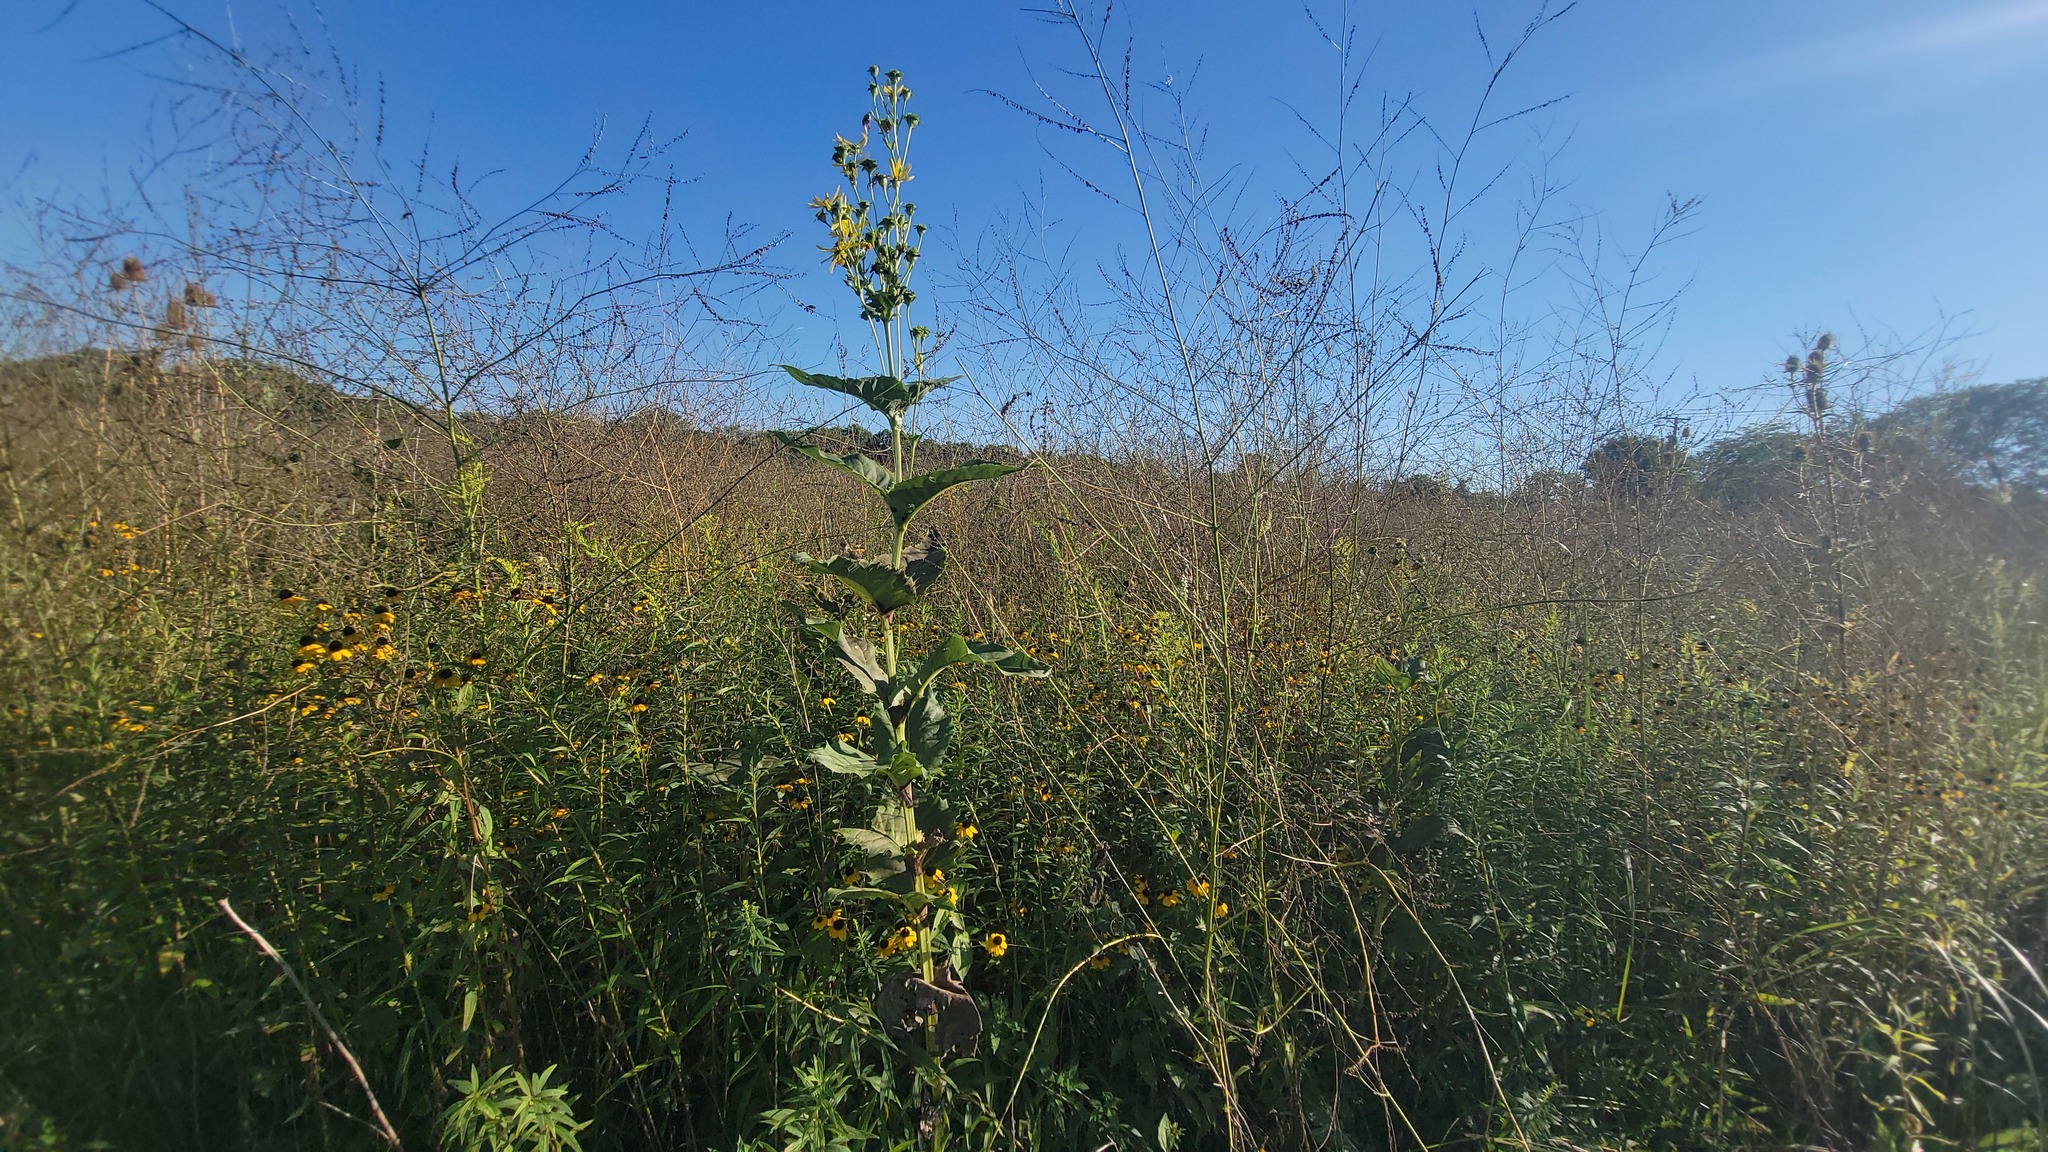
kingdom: Plantae
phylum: Tracheophyta
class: Magnoliopsida
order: Asterales
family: Asteraceae
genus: Silphium
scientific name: Silphium perfoliatum
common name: Cup-plant
